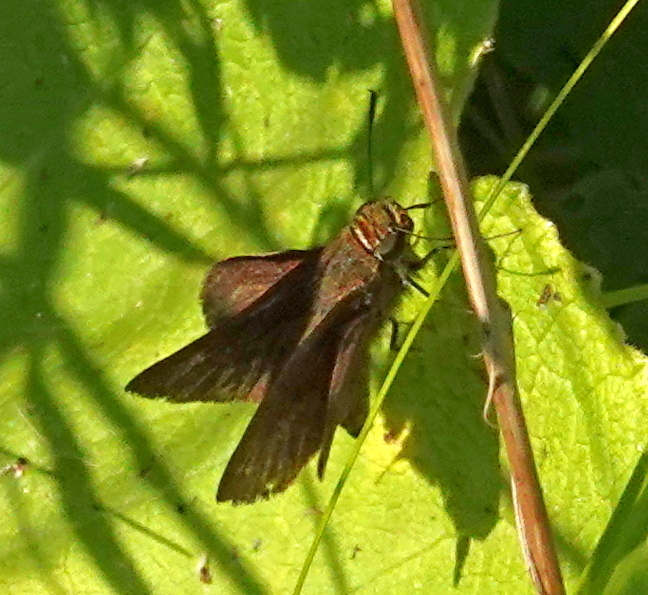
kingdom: Animalia
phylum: Arthropoda
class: Insecta
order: Lepidoptera
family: Hesperiidae
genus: Euphyes
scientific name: Euphyes vestris
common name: Dun skipper
